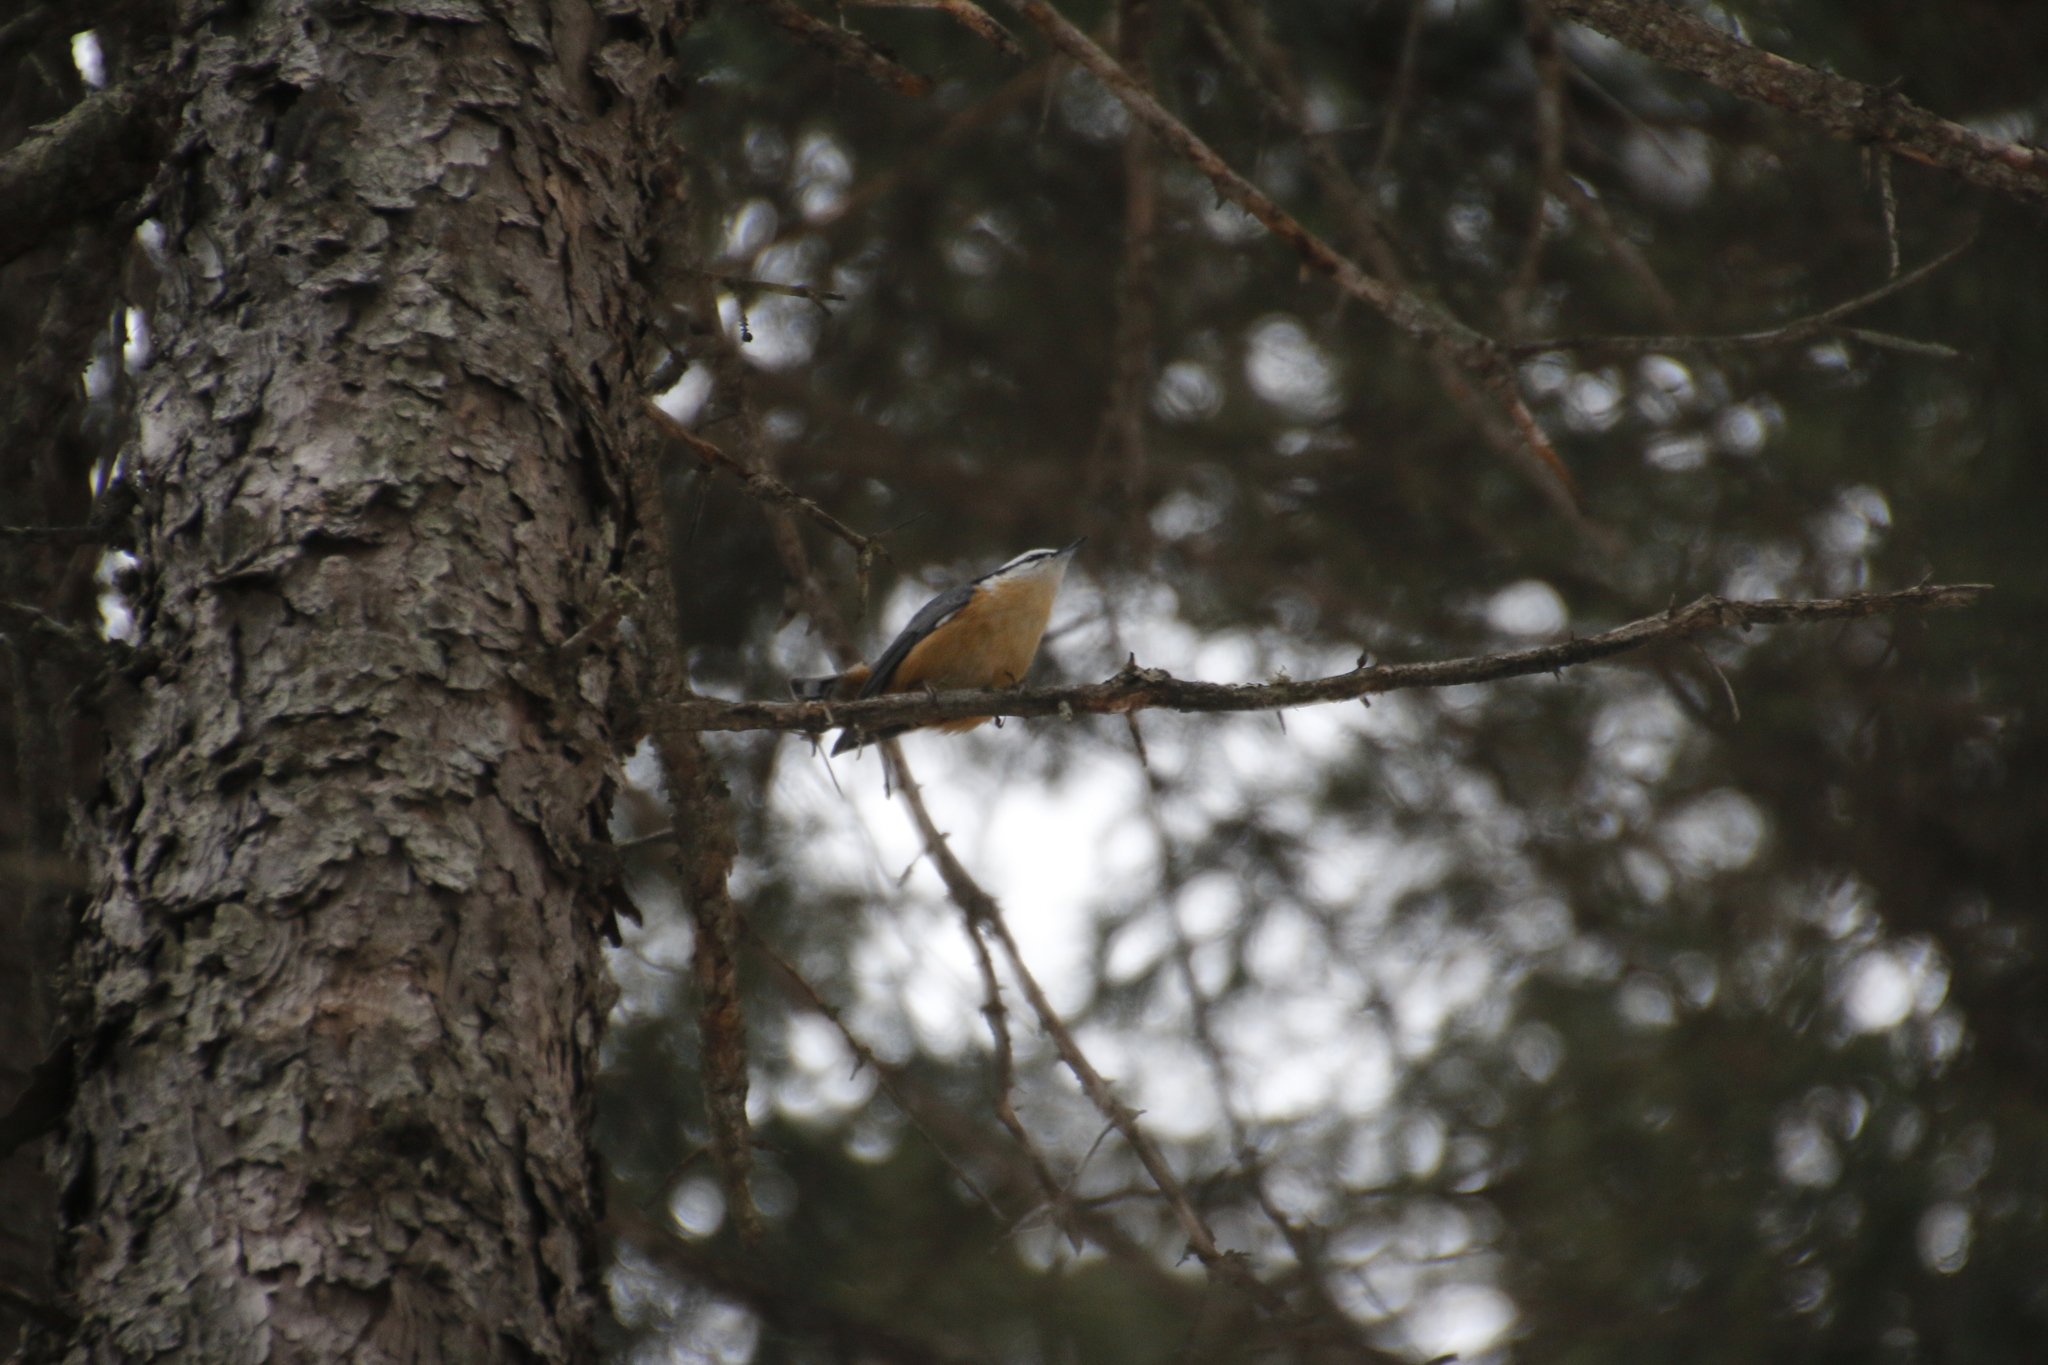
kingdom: Animalia
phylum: Chordata
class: Aves
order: Passeriformes
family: Sittidae
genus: Sitta
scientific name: Sitta canadensis
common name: Red-breasted nuthatch
